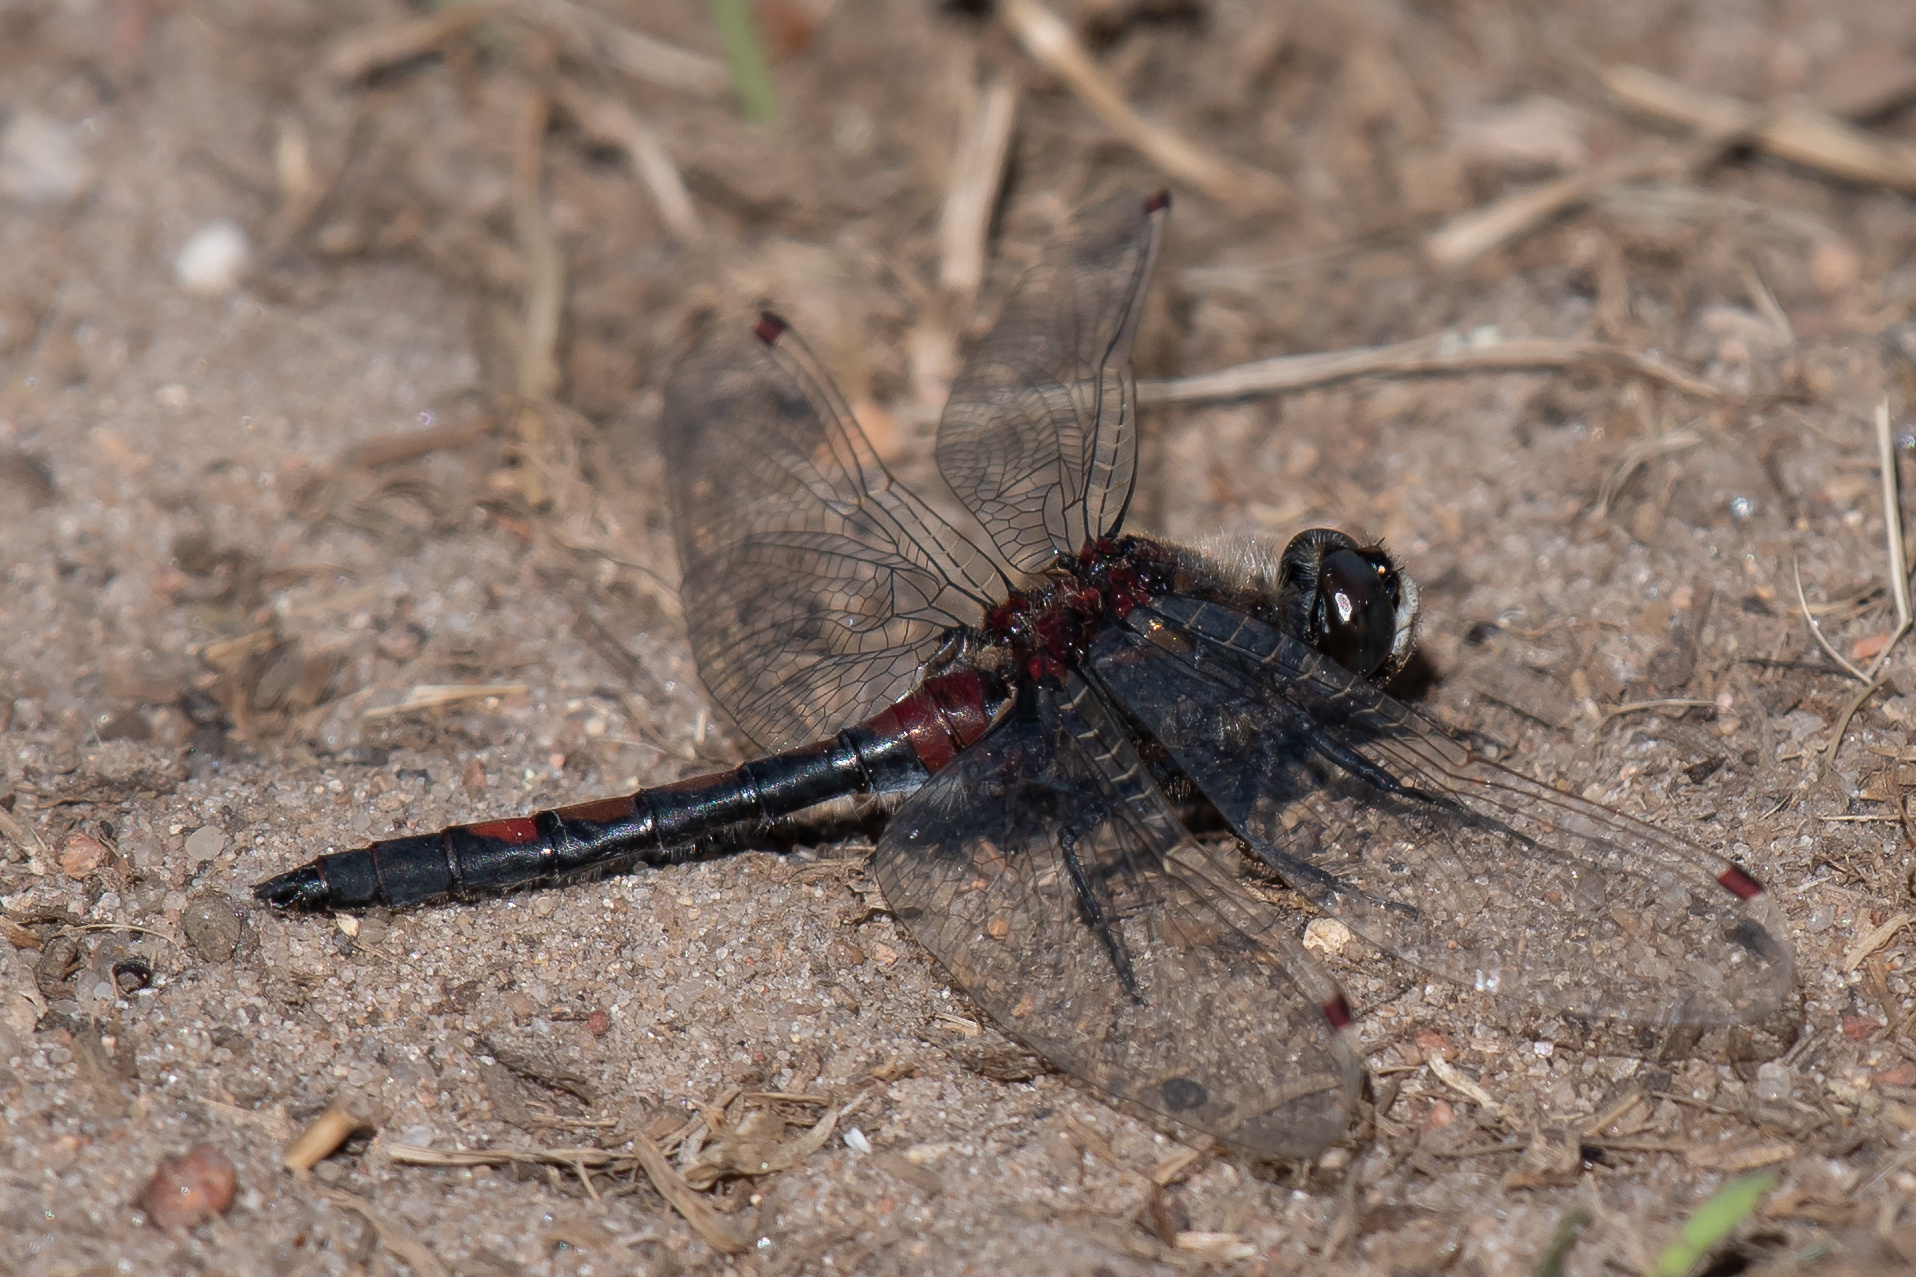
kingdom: Animalia
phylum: Arthropoda
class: Insecta
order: Odonata
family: Libellulidae
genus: Leucorrhinia
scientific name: Leucorrhinia rubicunda
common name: Ruby whiteface
